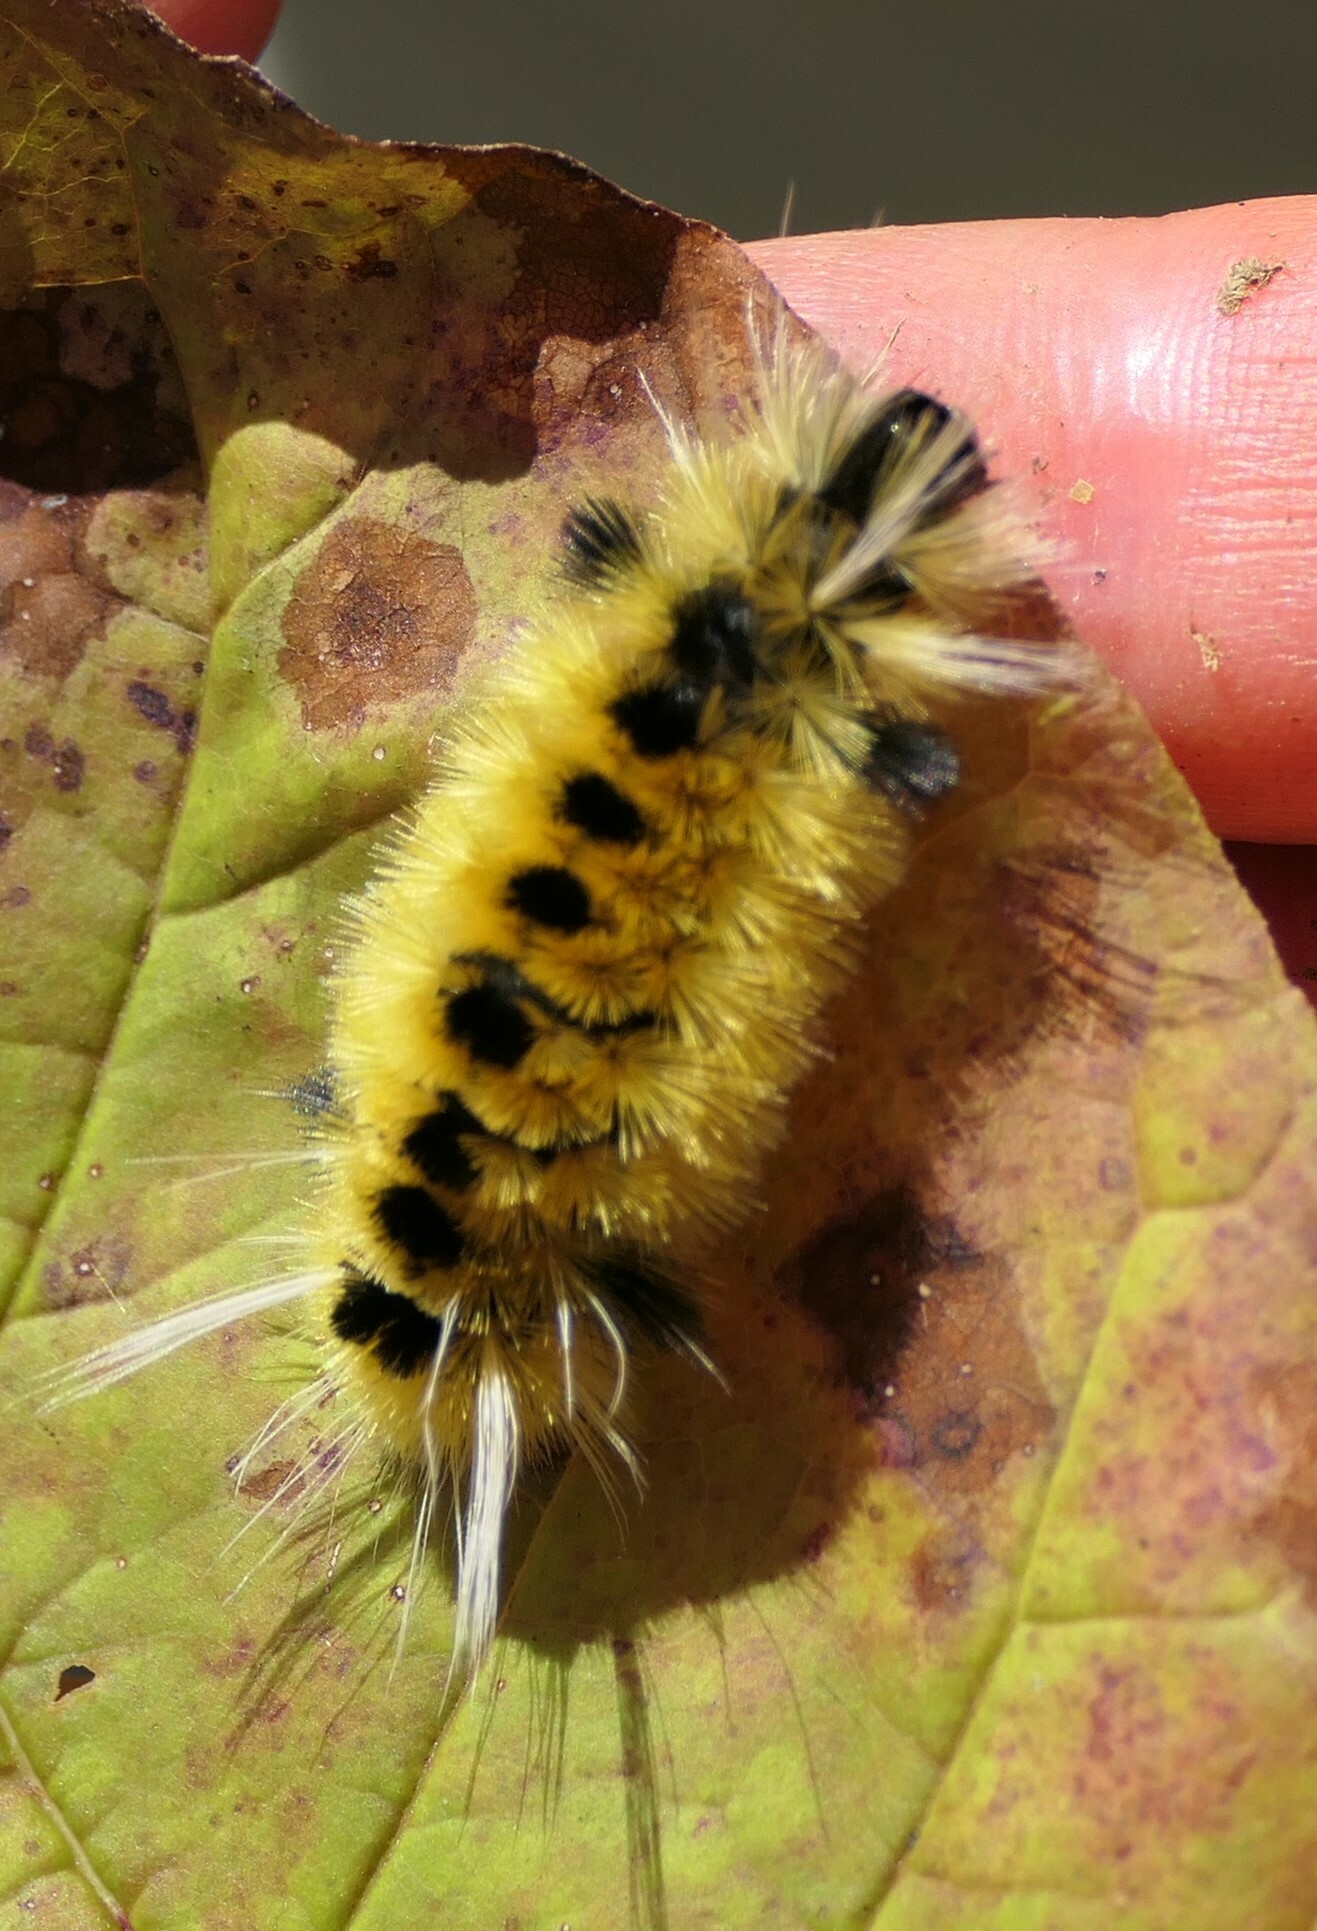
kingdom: Animalia
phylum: Arthropoda
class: Insecta
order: Lepidoptera
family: Erebidae
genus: Lophocampa
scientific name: Lophocampa maculata
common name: Spotted tussock moth
